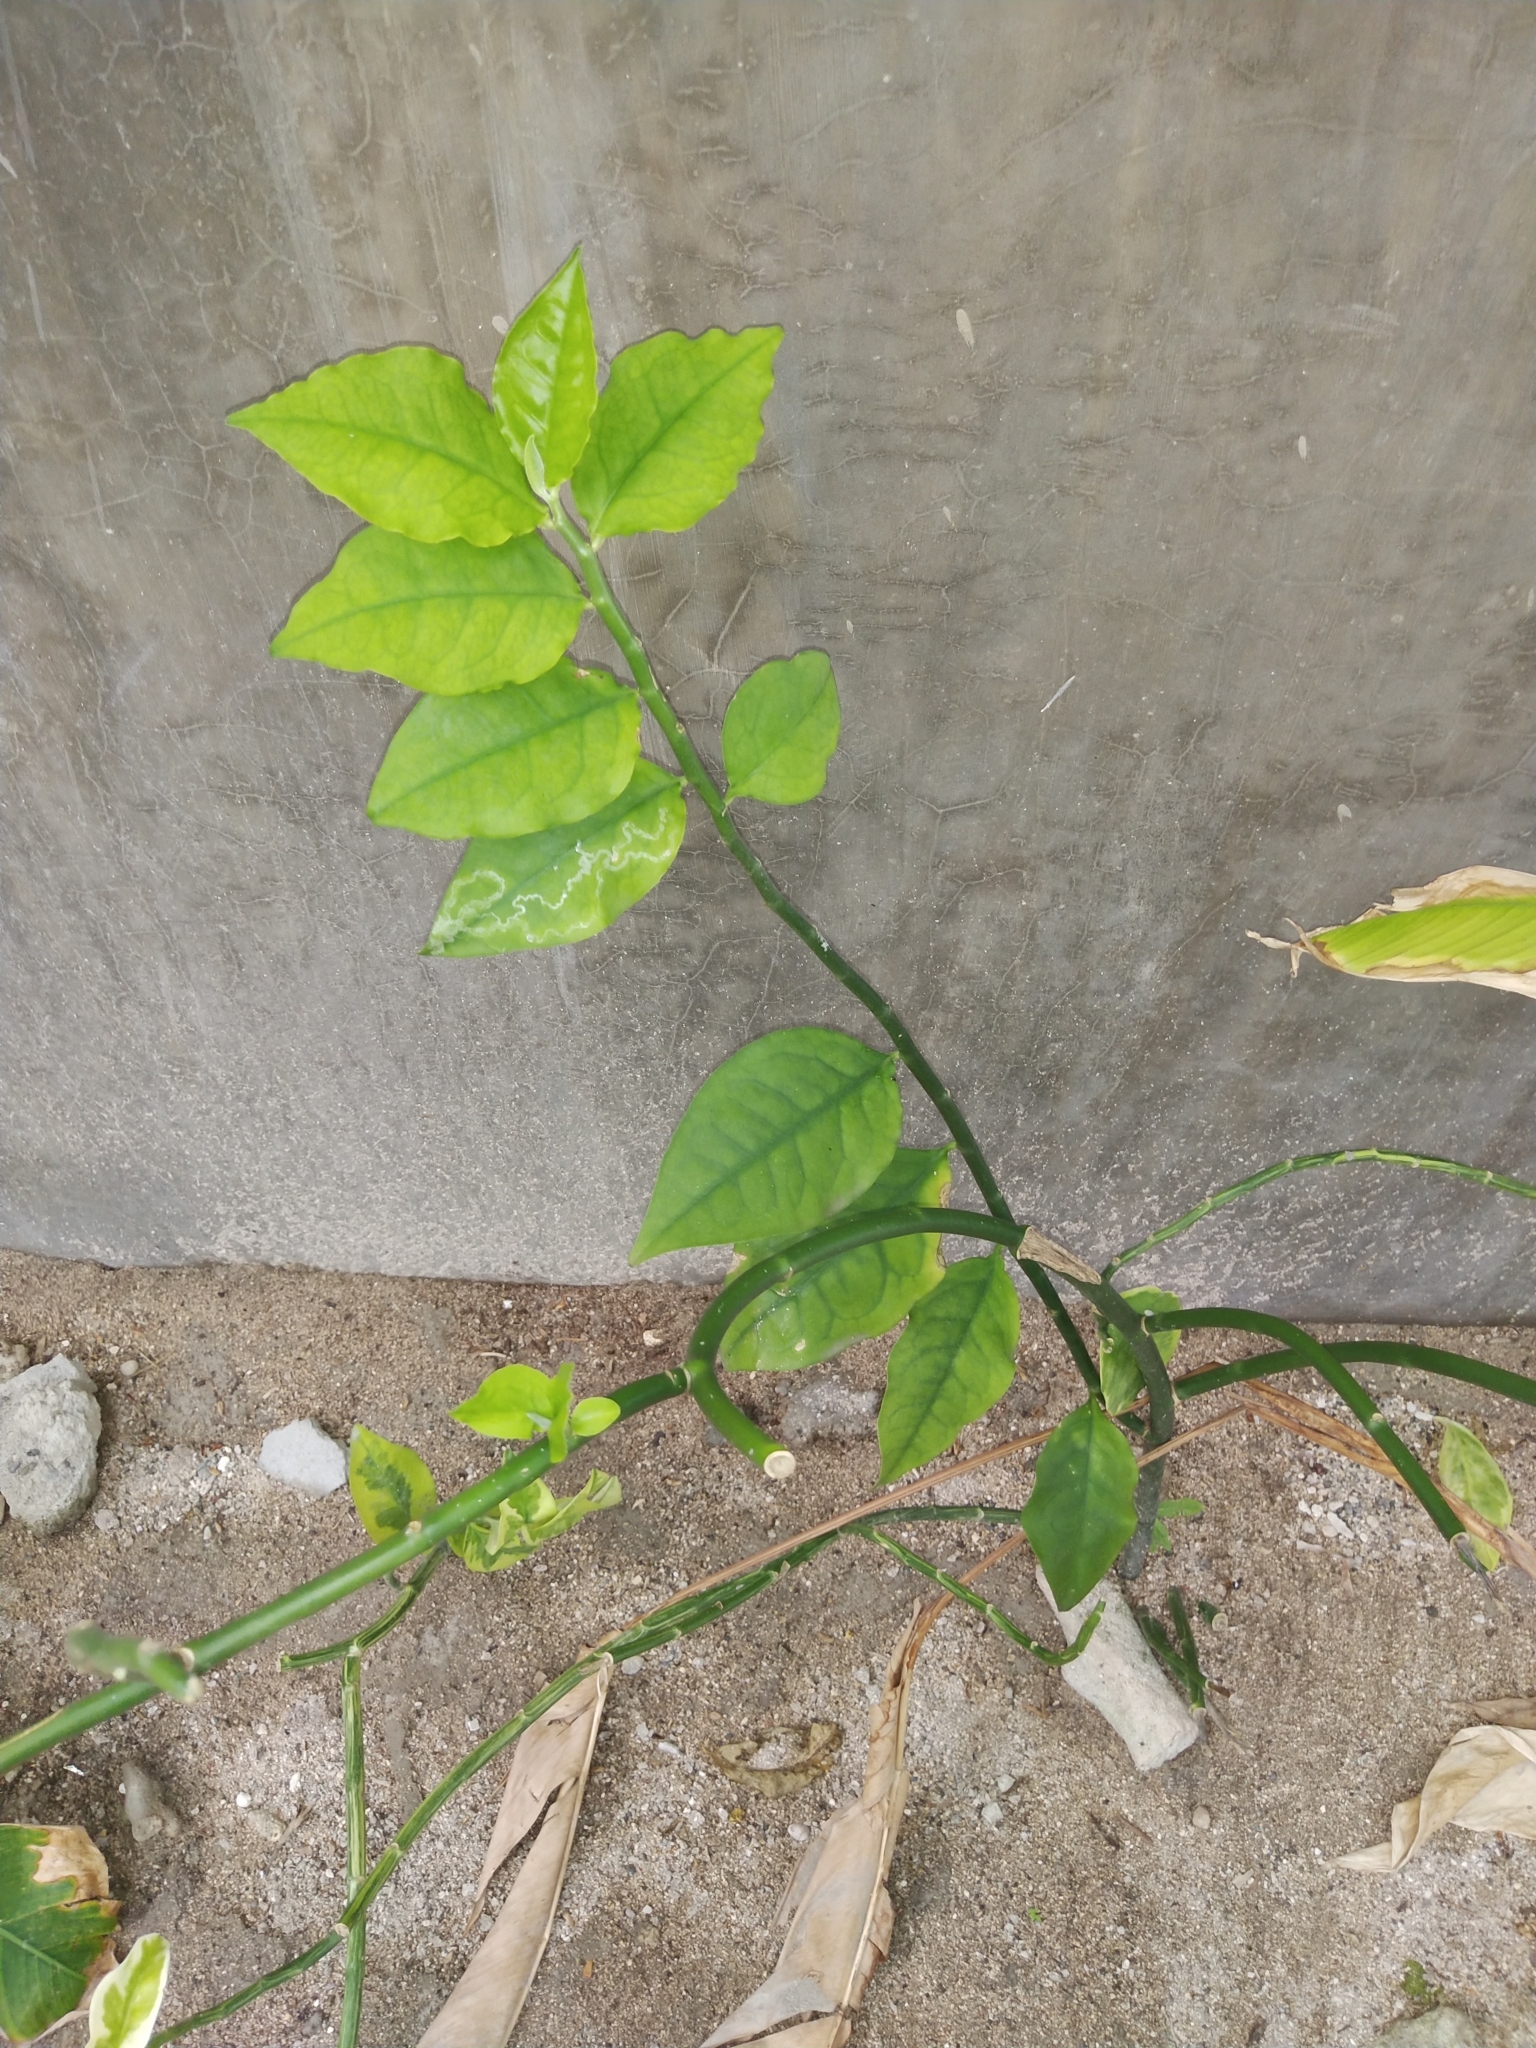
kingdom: Plantae
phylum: Tracheophyta
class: Magnoliopsida
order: Malpighiales
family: Euphorbiaceae
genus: Euphorbia
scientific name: Euphorbia tithymaloides
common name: Slipperplant
